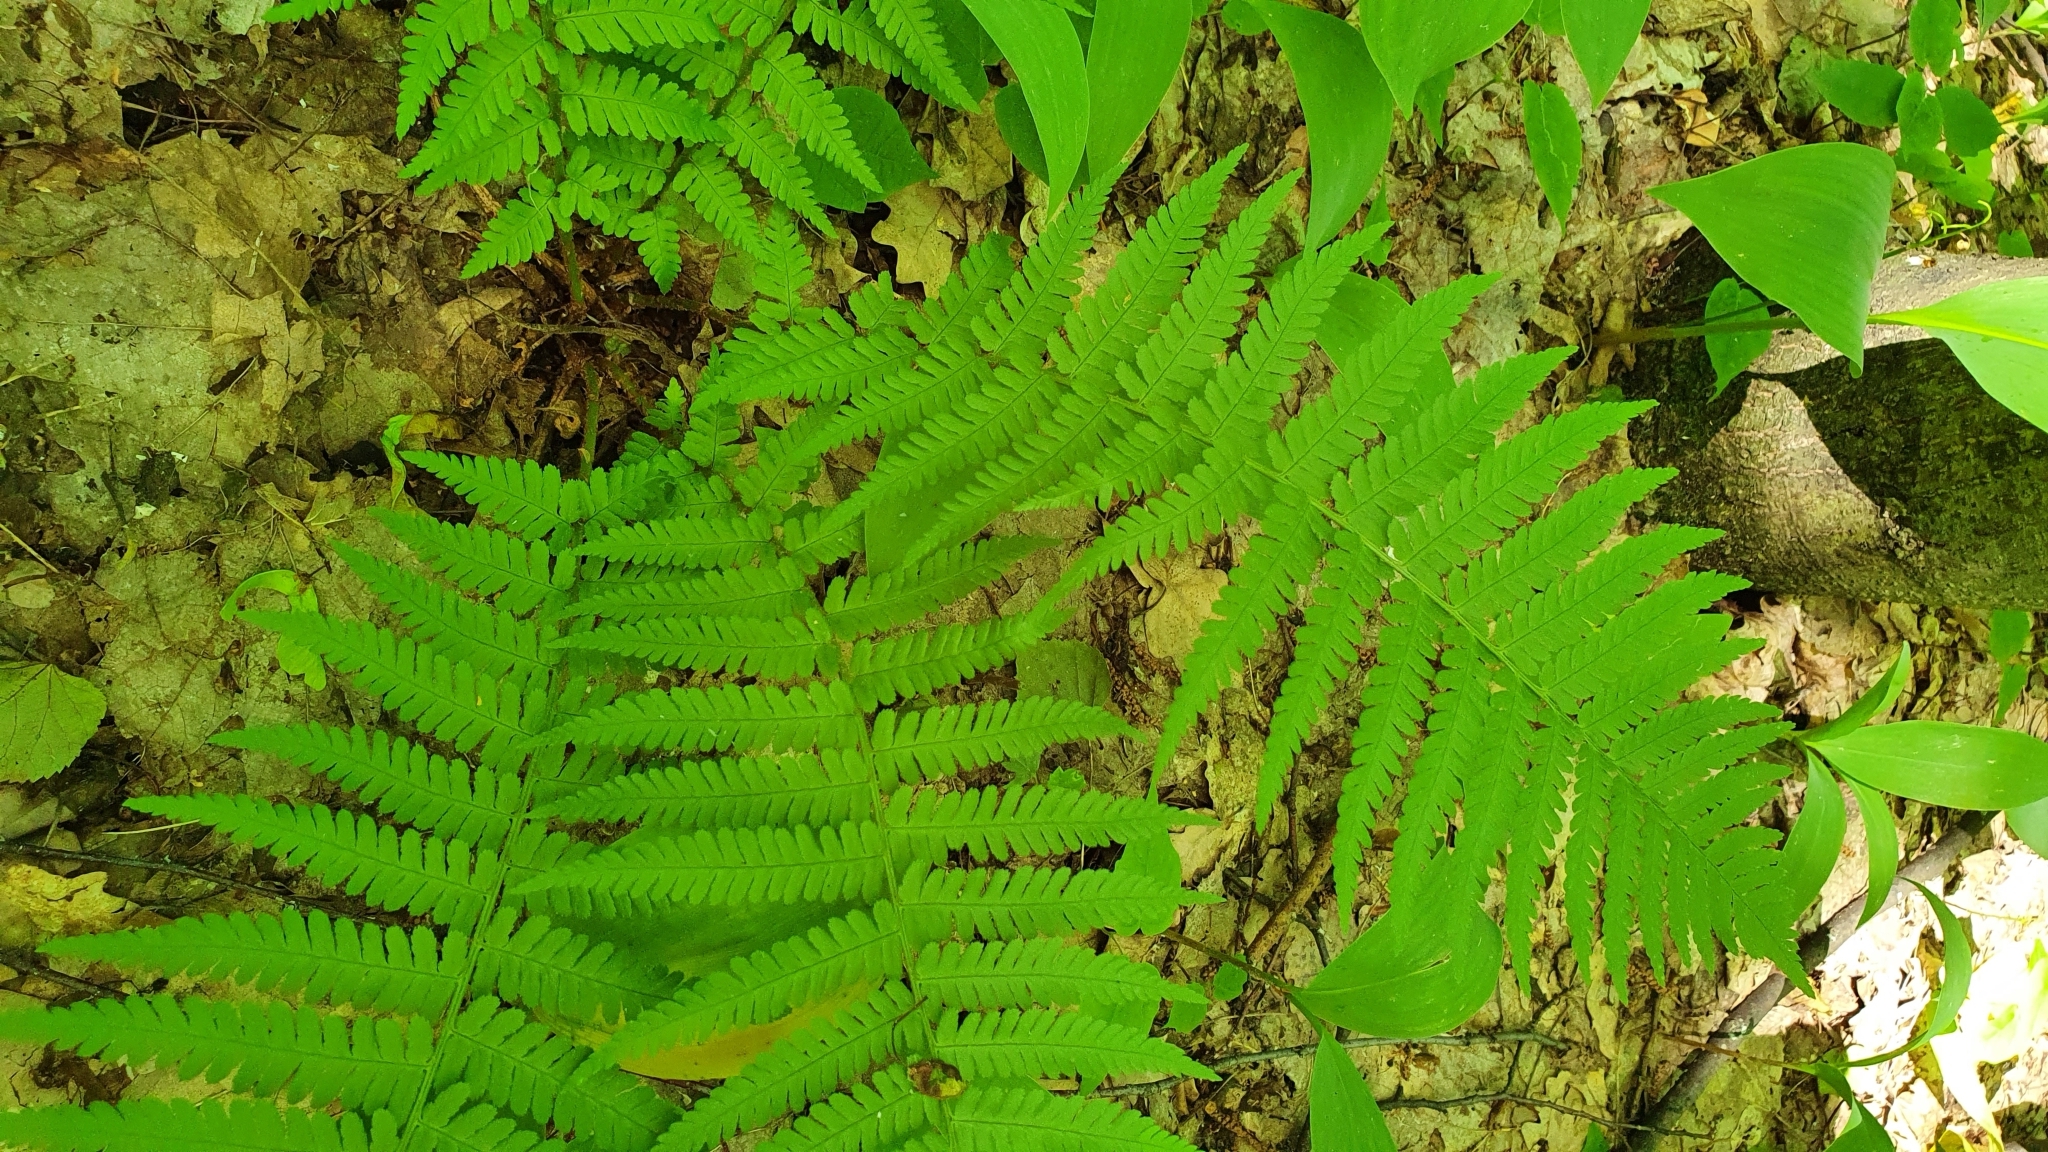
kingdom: Plantae
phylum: Tracheophyta
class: Polypodiopsida
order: Polypodiales
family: Dryopteridaceae
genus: Dryopteris
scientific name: Dryopteris filix-mas
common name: Male fern
